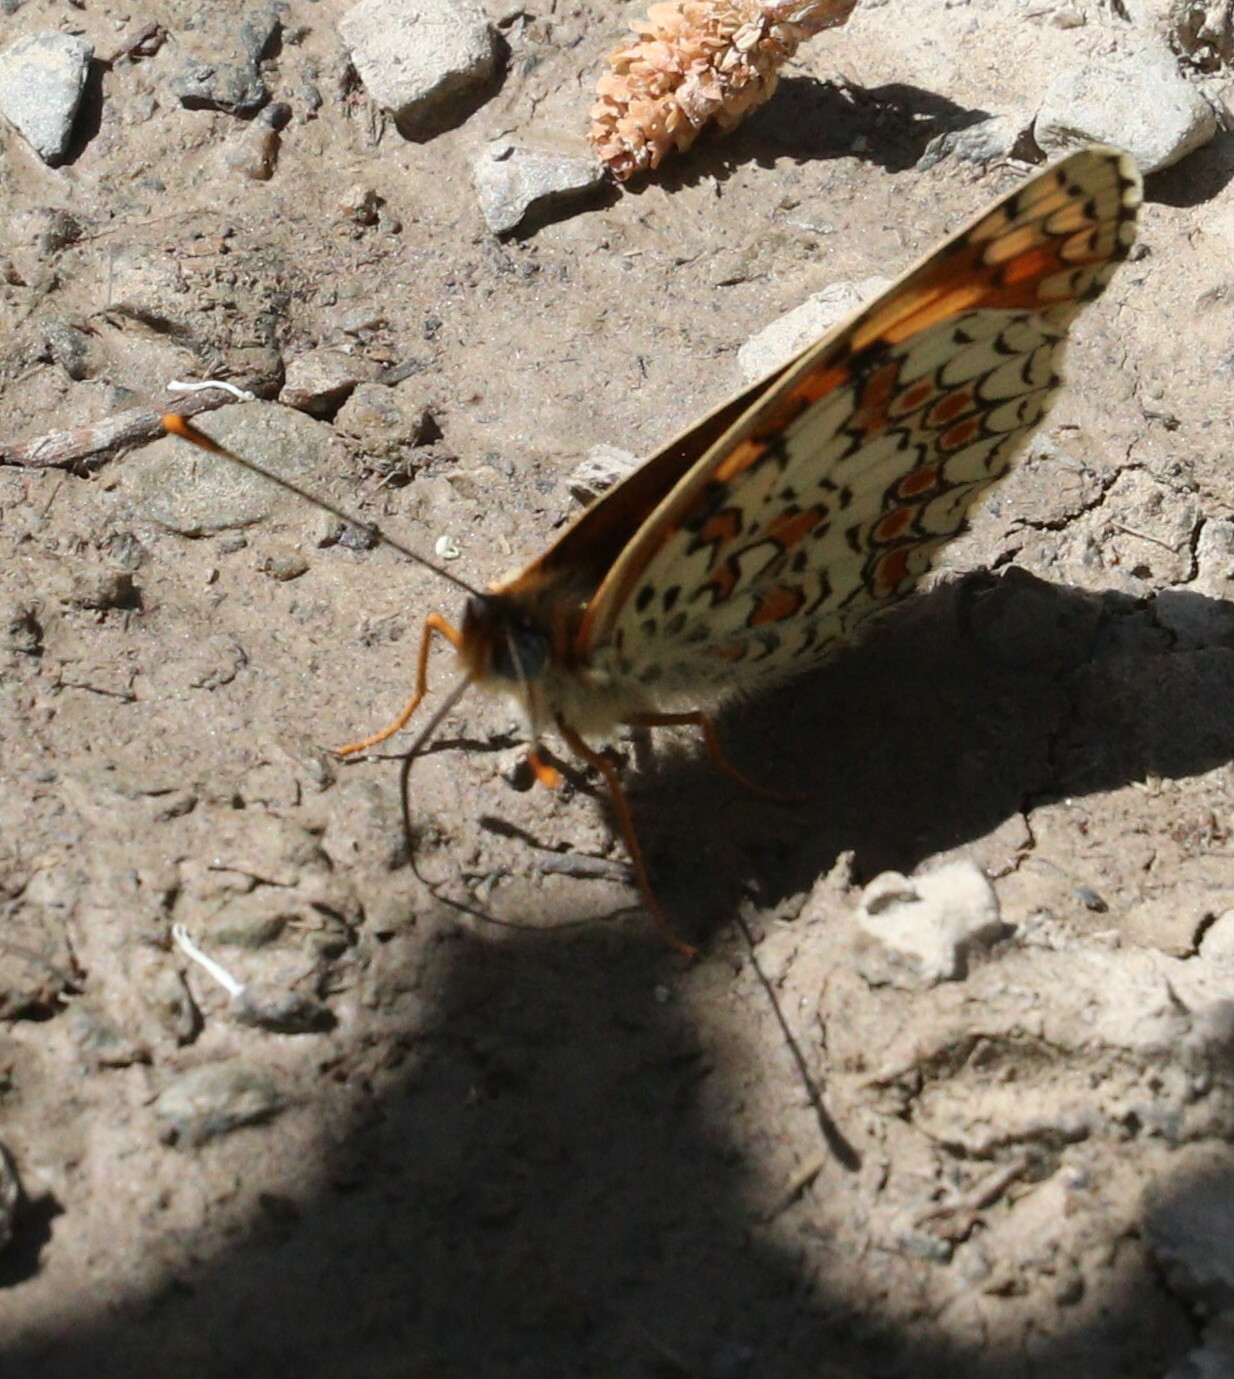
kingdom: Animalia
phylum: Arthropoda
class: Insecta
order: Lepidoptera
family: Nymphalidae
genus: Melitaea
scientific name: Melitaea phoebe
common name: Knapweed fritillary
